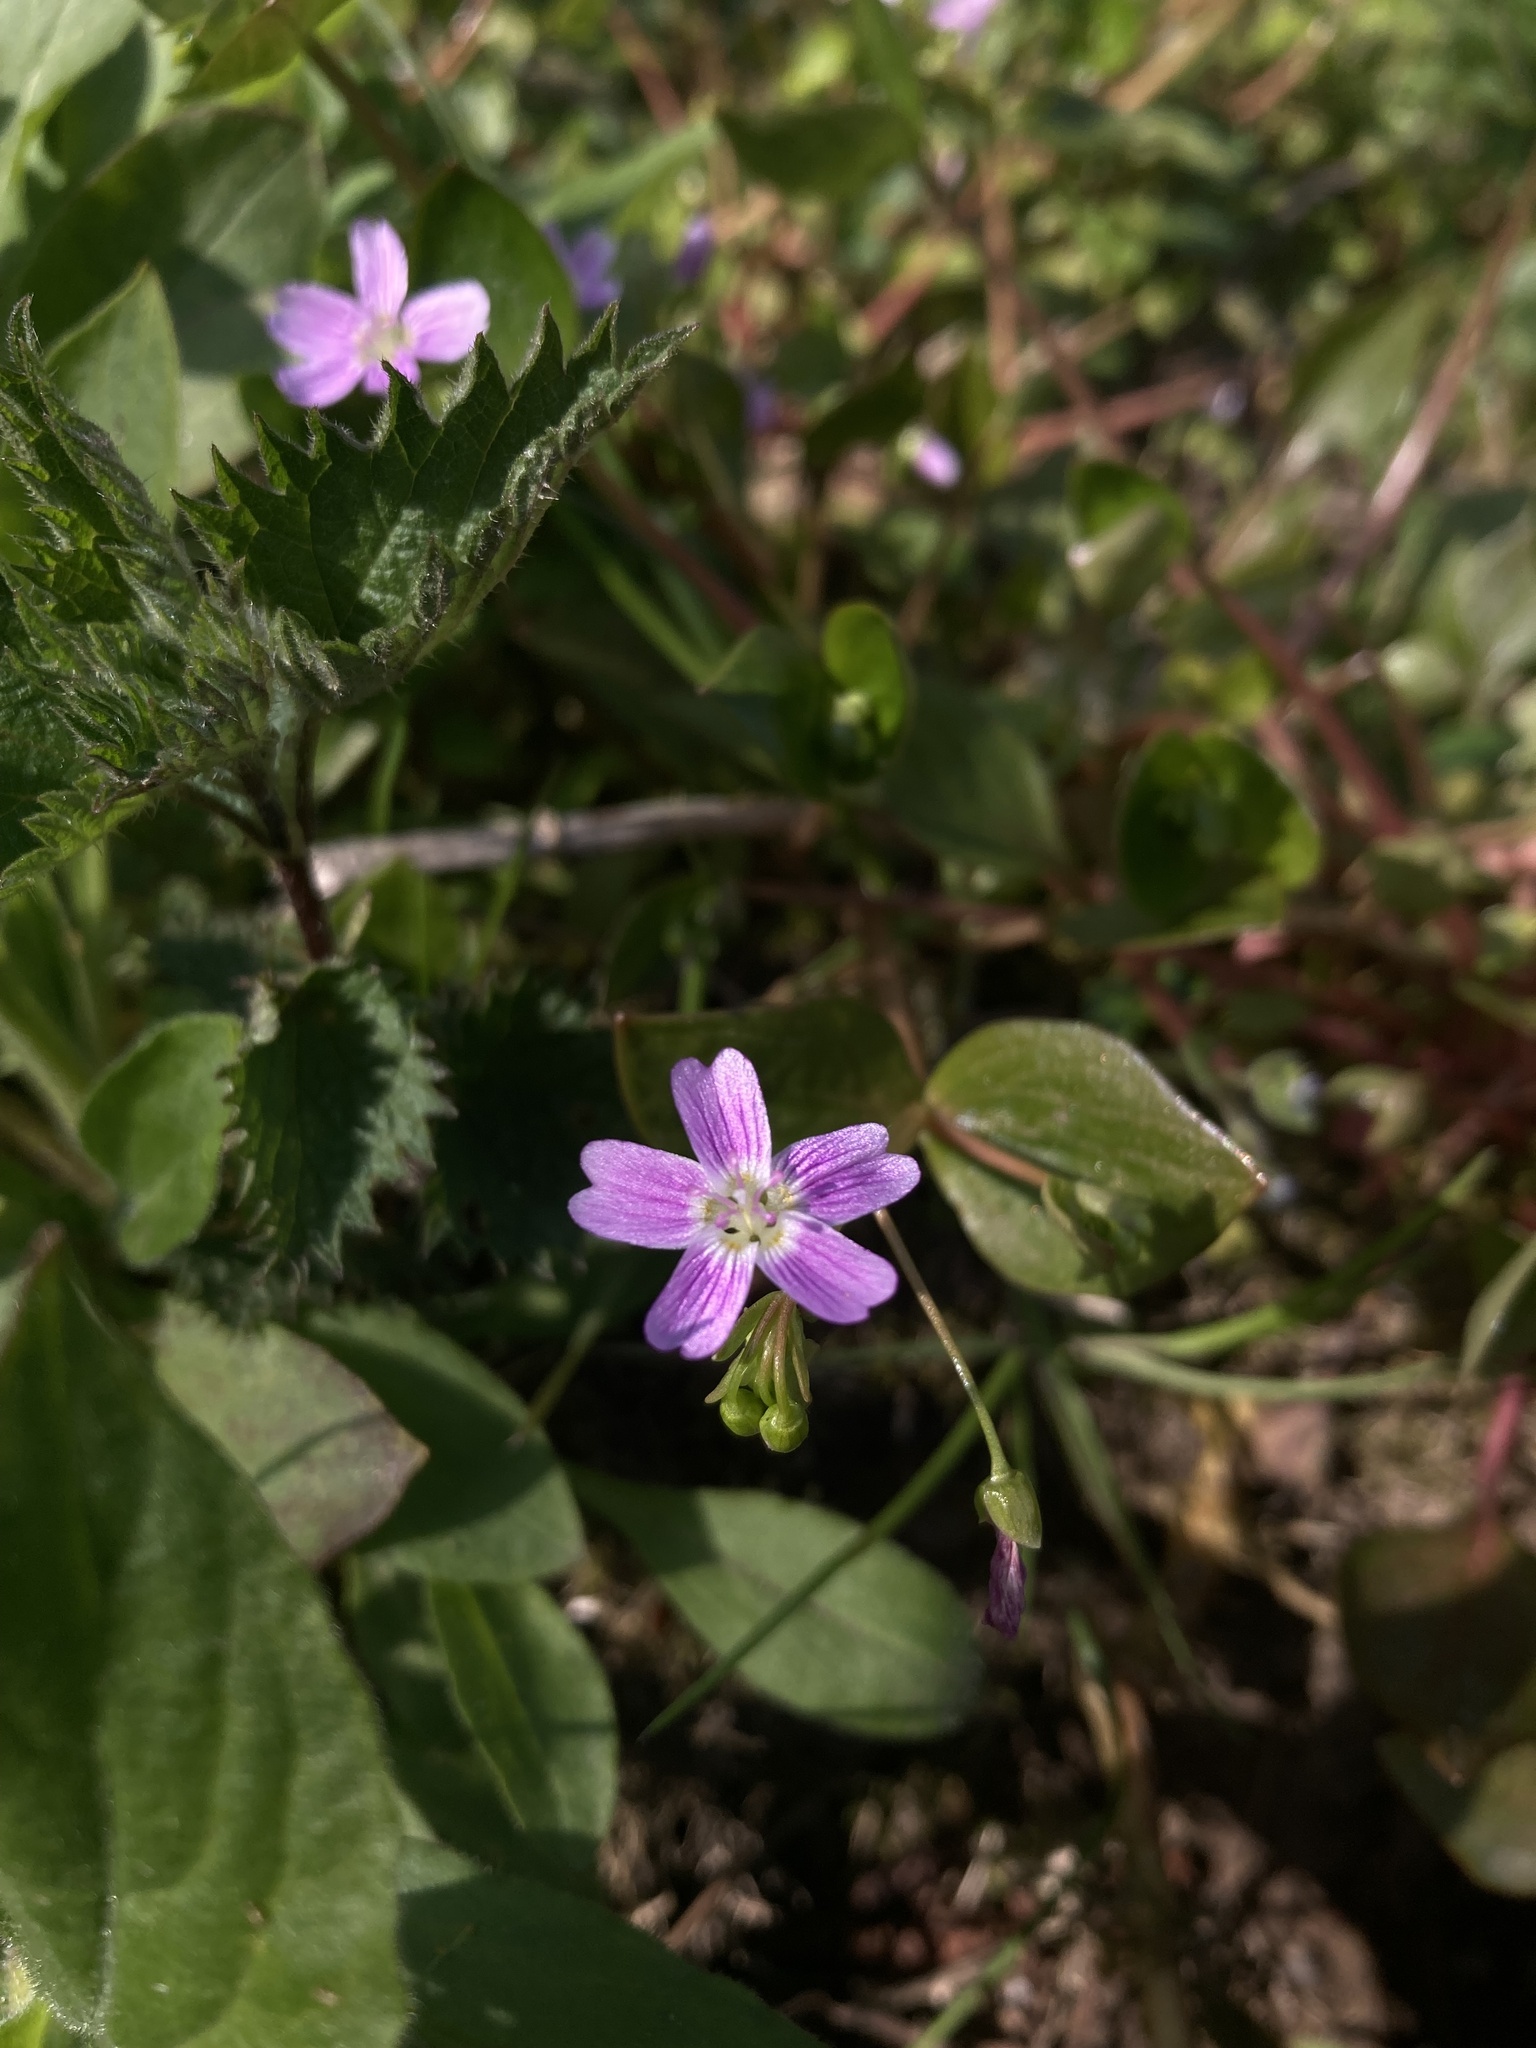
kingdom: Plantae
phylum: Tracheophyta
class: Magnoliopsida
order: Caryophyllales
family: Montiaceae
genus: Claytonia
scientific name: Claytonia sibirica
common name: Pink purslane
